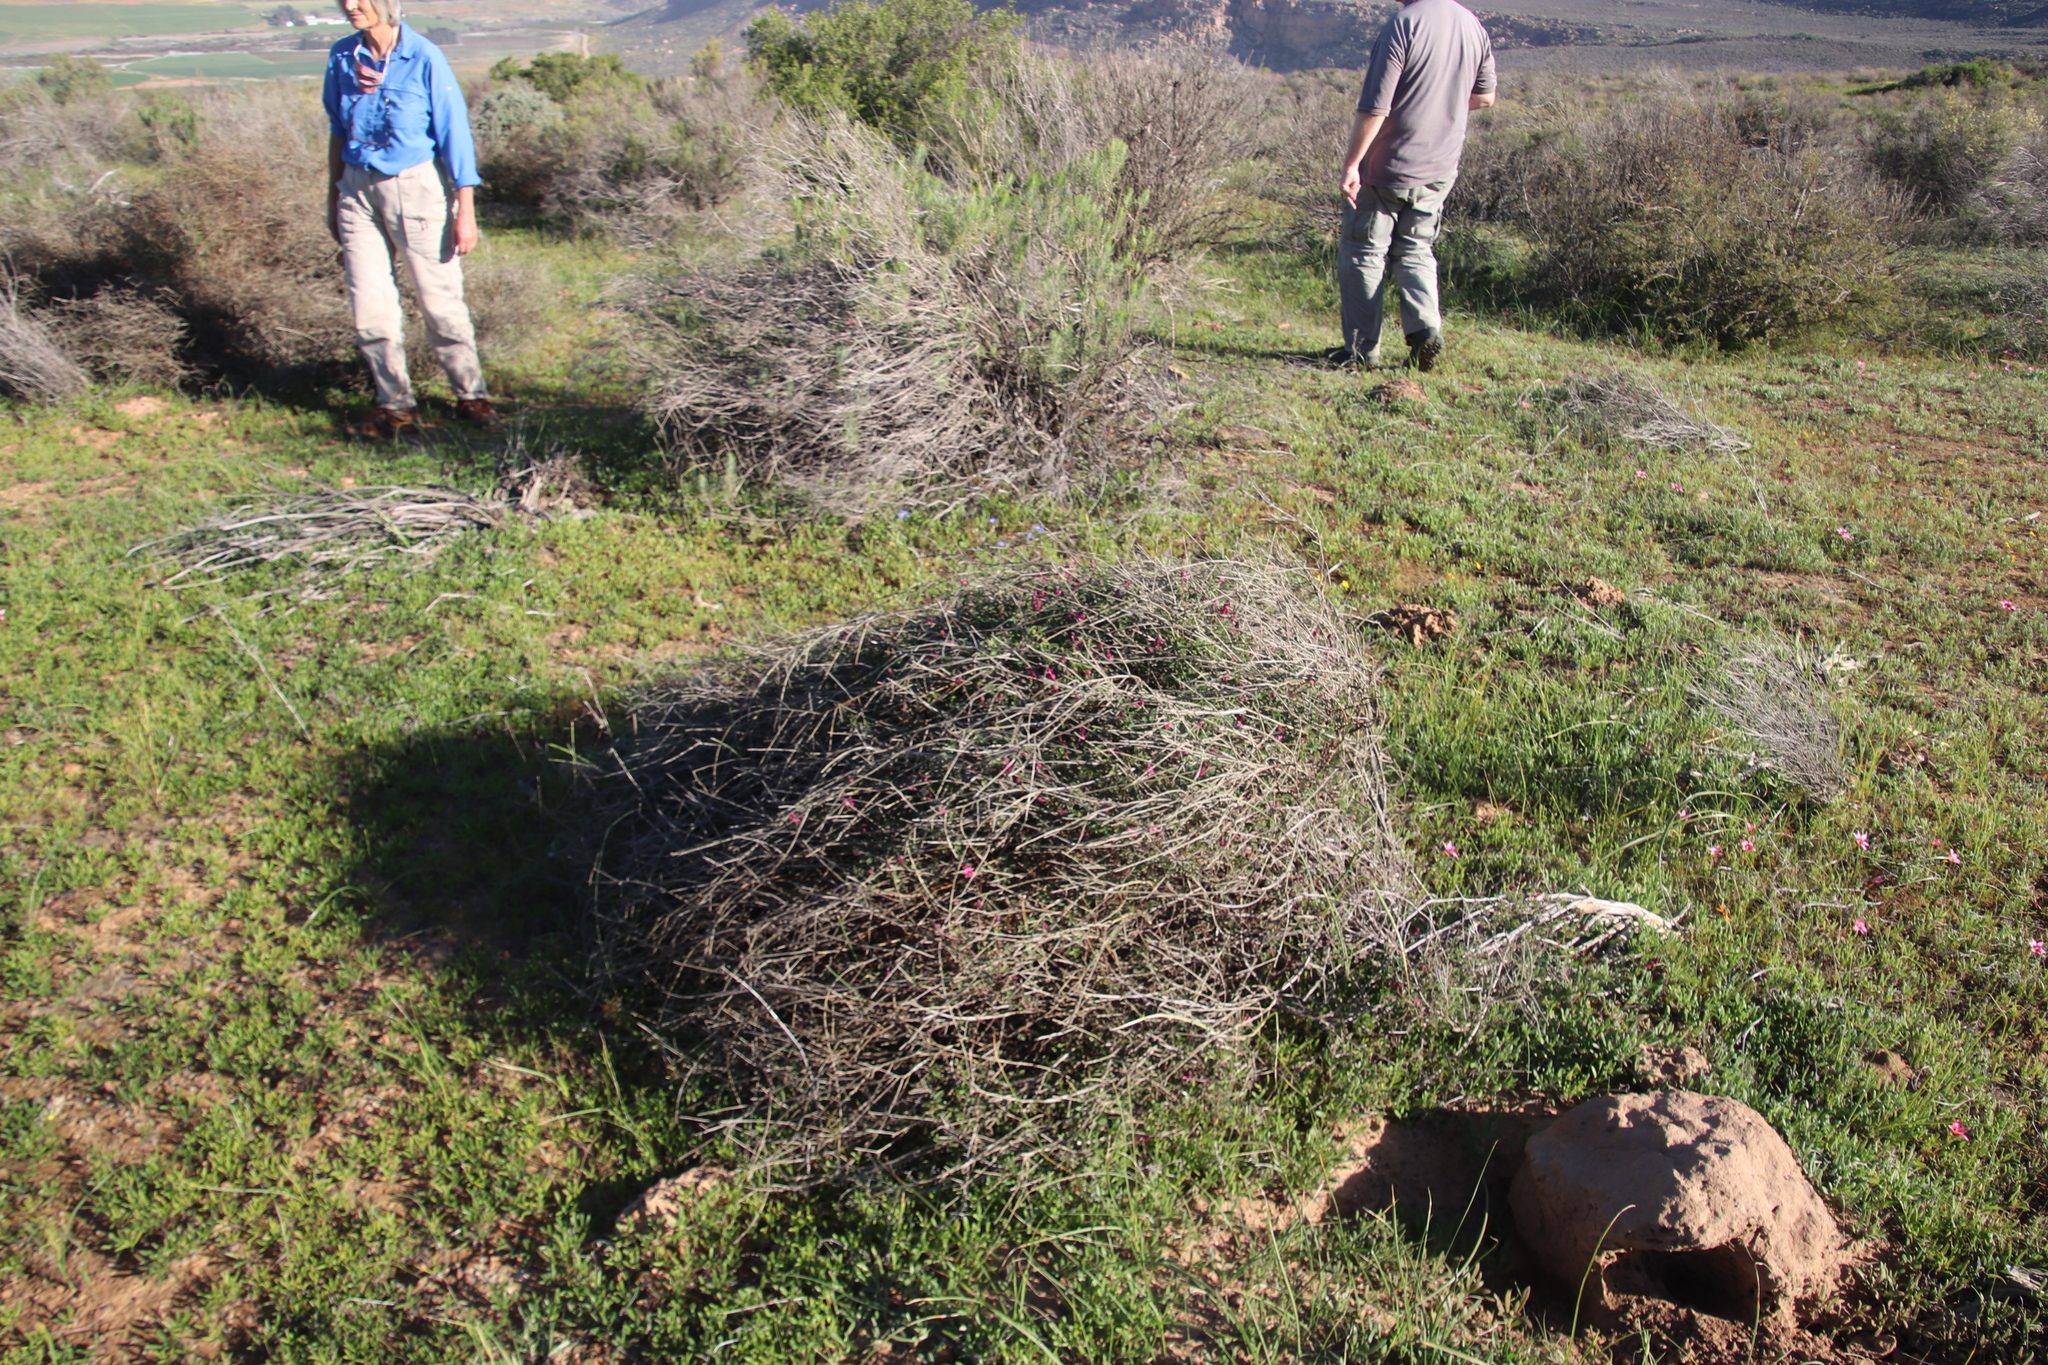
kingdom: Plantae
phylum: Tracheophyta
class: Magnoliopsida
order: Fabales
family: Fabaceae
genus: Indigofera
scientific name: Indigofera intermedia
